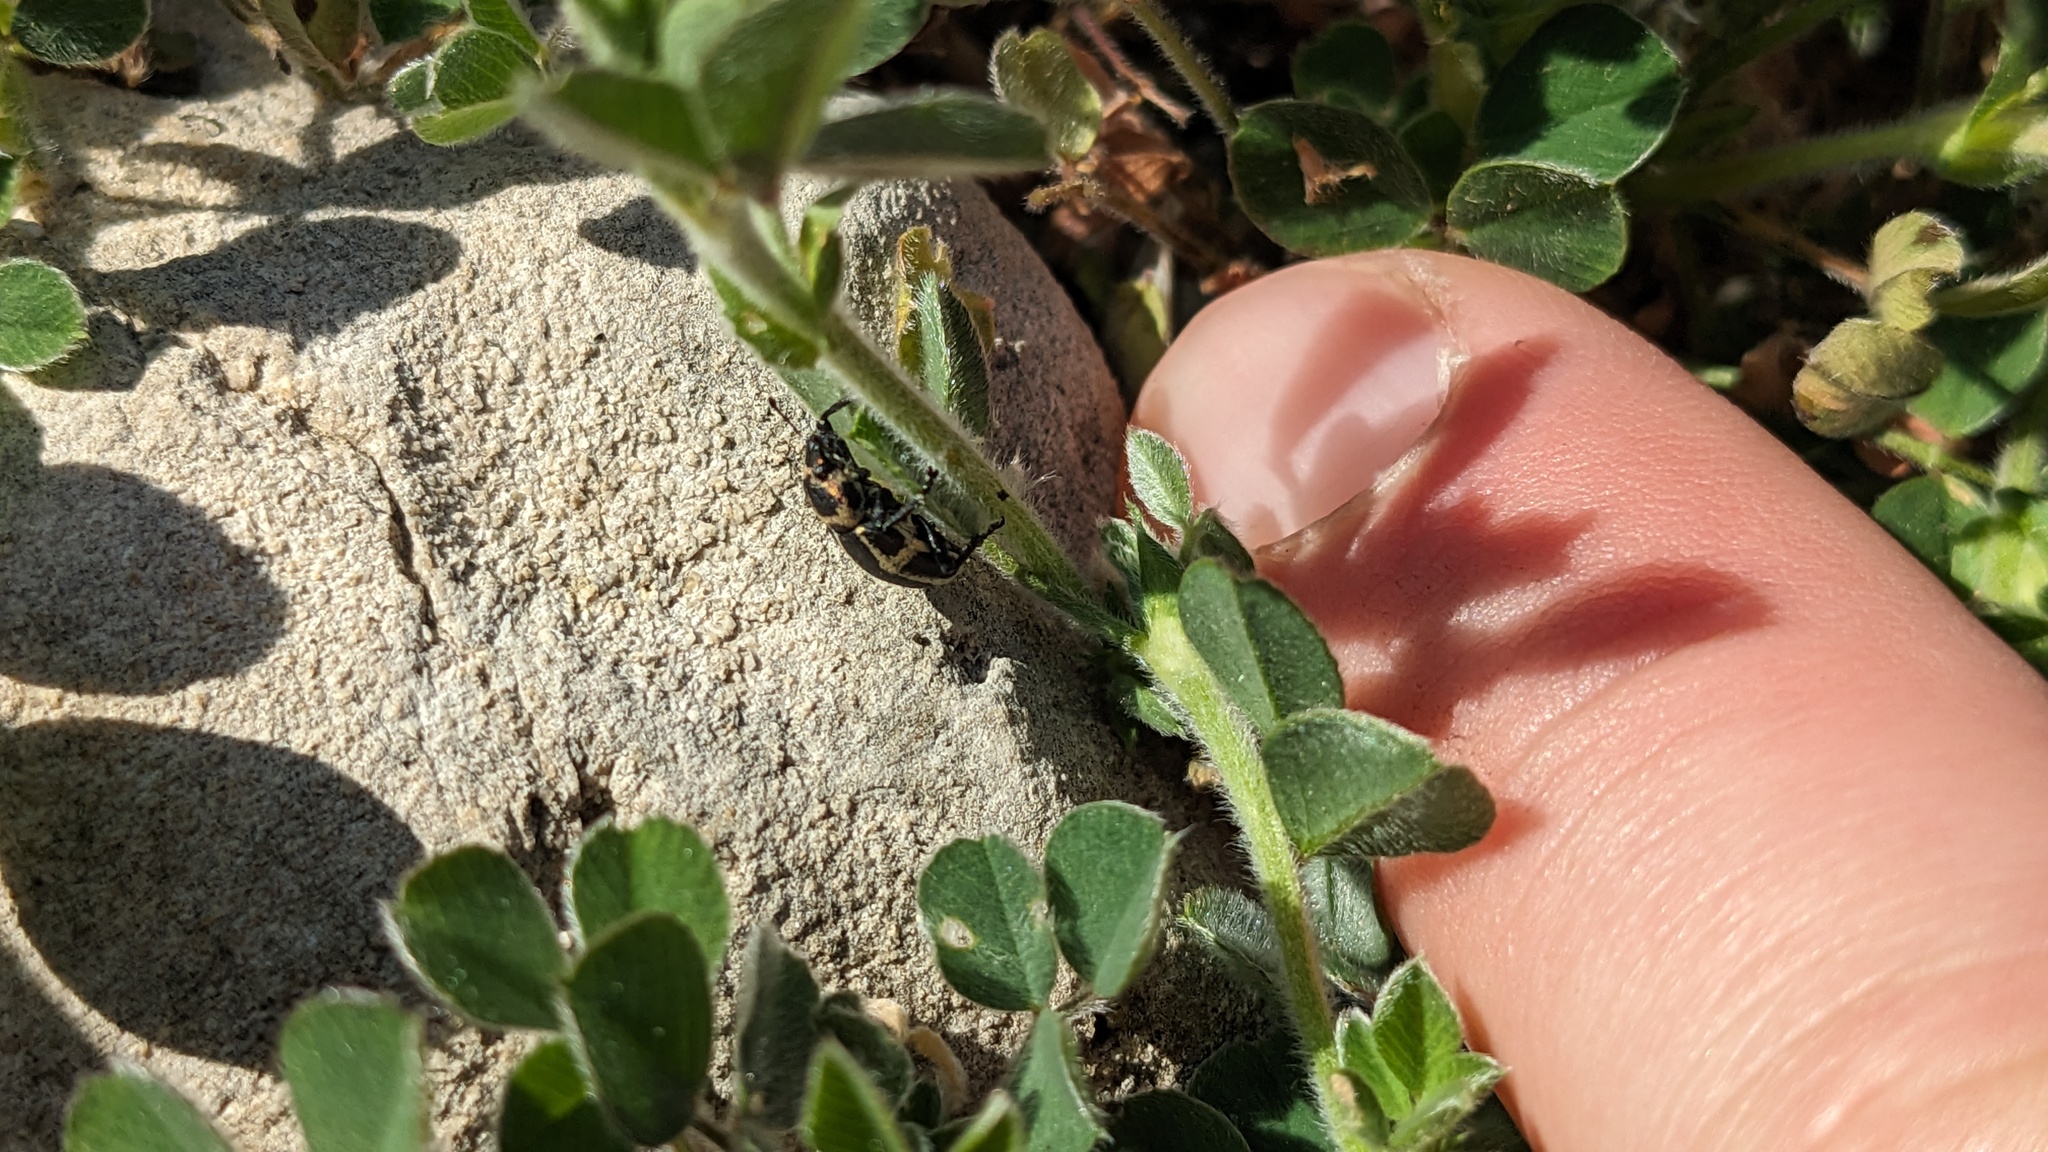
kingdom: Animalia
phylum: Arthropoda
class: Insecta
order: Coleoptera
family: Curculionidae
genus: Eudiagogus
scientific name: Eudiagogus pulcher
